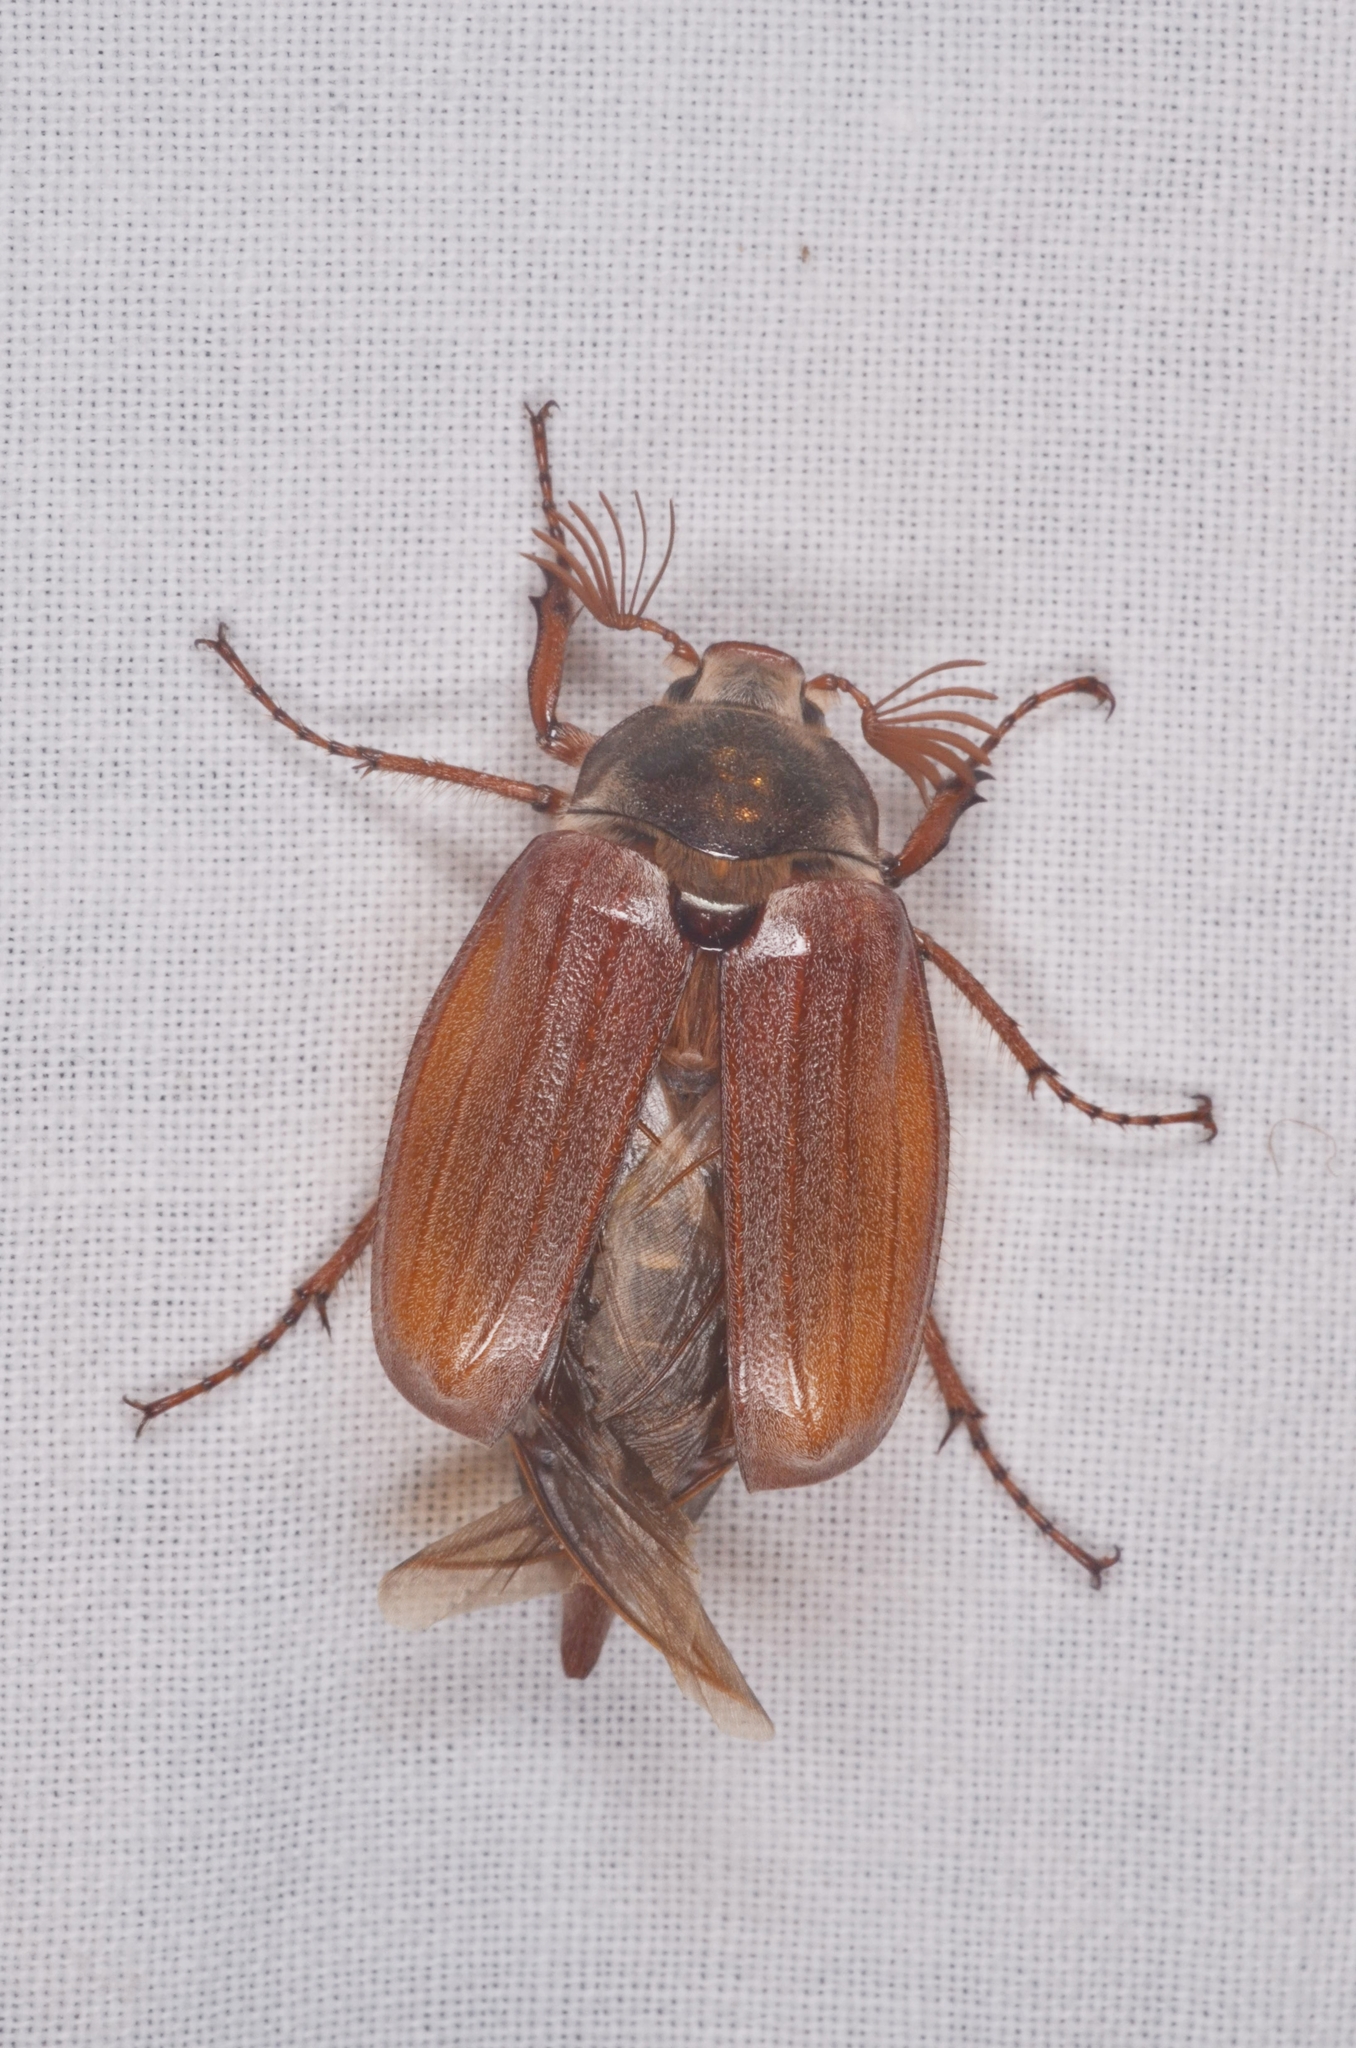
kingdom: Animalia
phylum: Arthropoda
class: Insecta
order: Coleoptera
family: Scarabaeidae
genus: Melolontha
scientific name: Melolontha melolontha
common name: Cockchafer maybeetle
